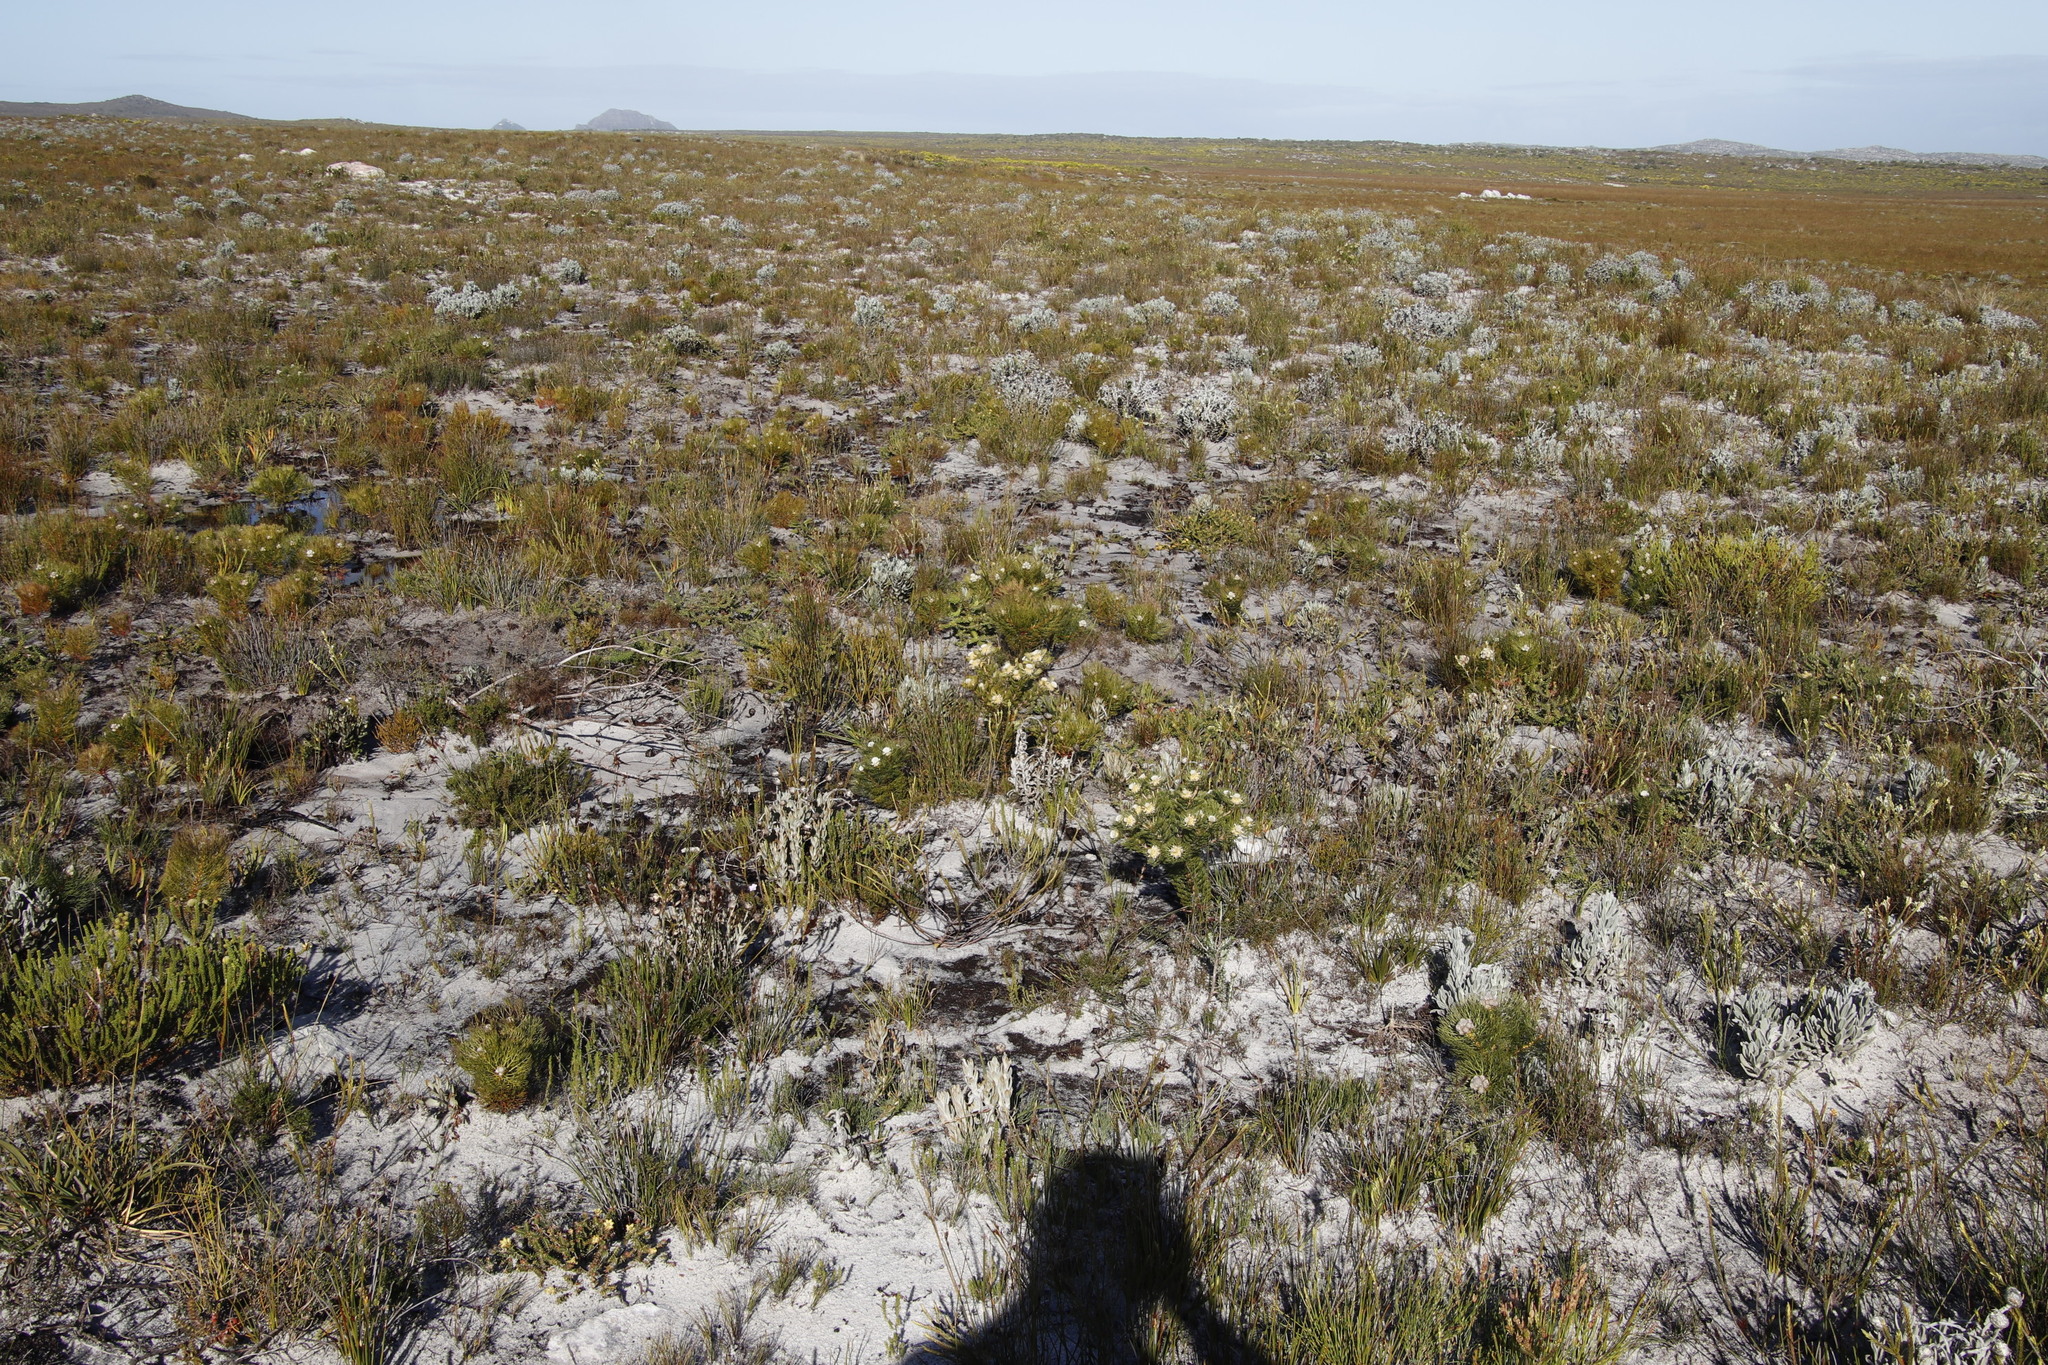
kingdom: Plantae
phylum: Tracheophyta
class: Magnoliopsida
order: Proteales
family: Proteaceae
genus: Serruria
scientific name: Serruria villosa
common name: Golden spiderhead
